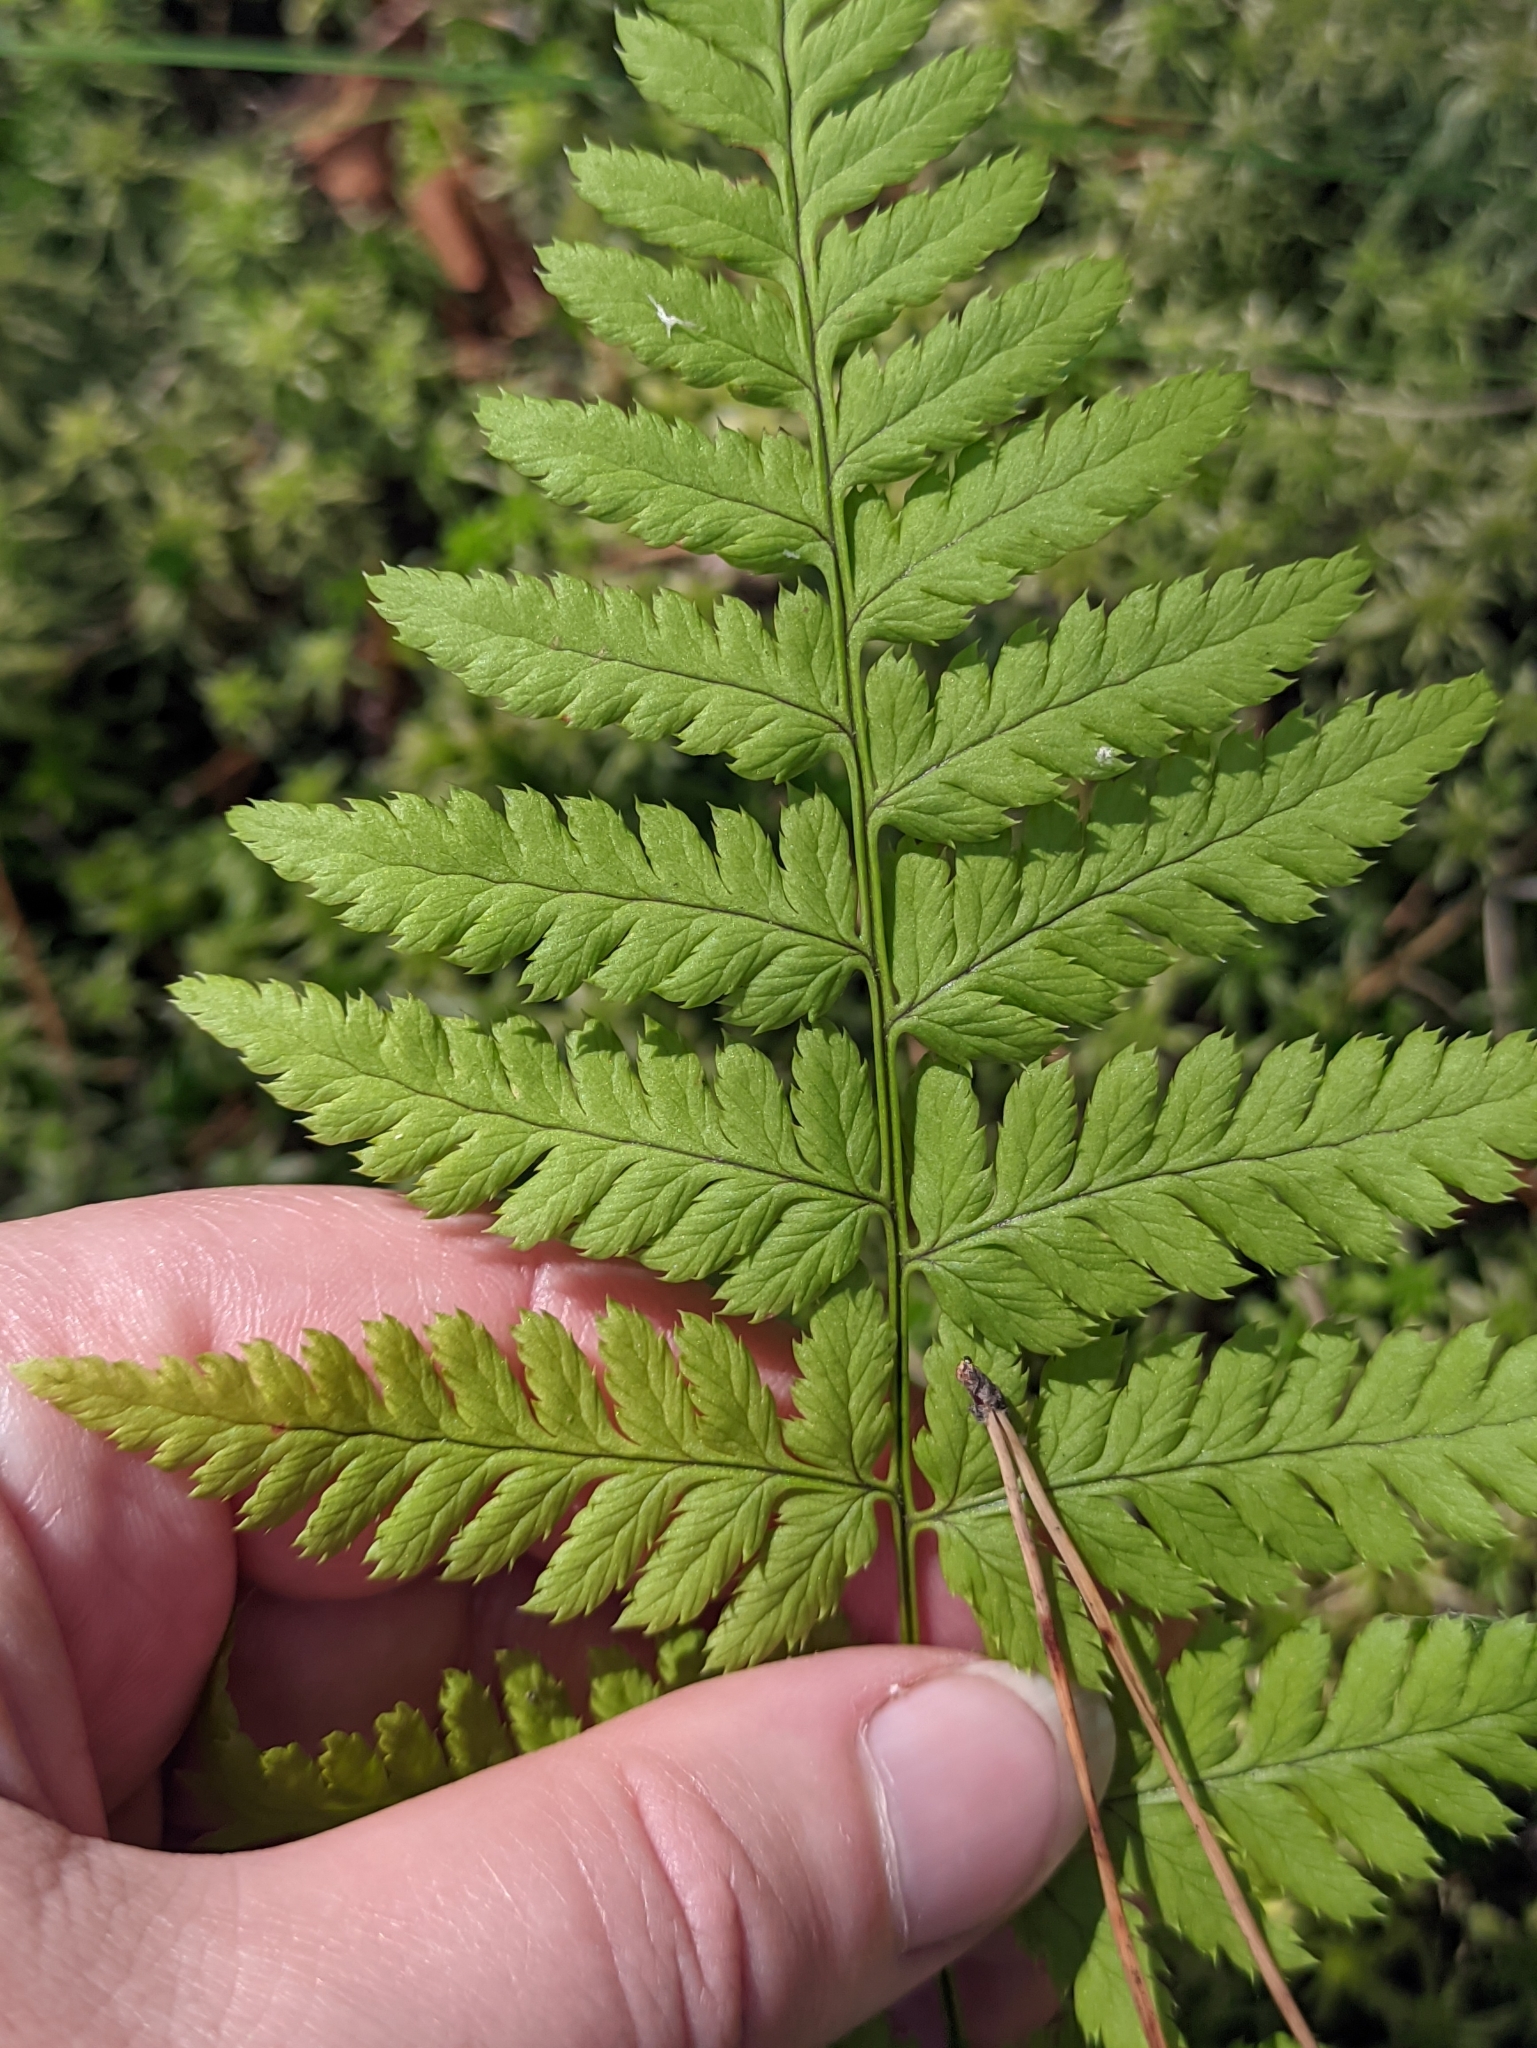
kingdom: Plantae
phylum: Tracheophyta
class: Polypodiopsida
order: Polypodiales
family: Dryopteridaceae
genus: Dryopteris
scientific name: Dryopteris carthusiana
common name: Narrow buckler-fern
